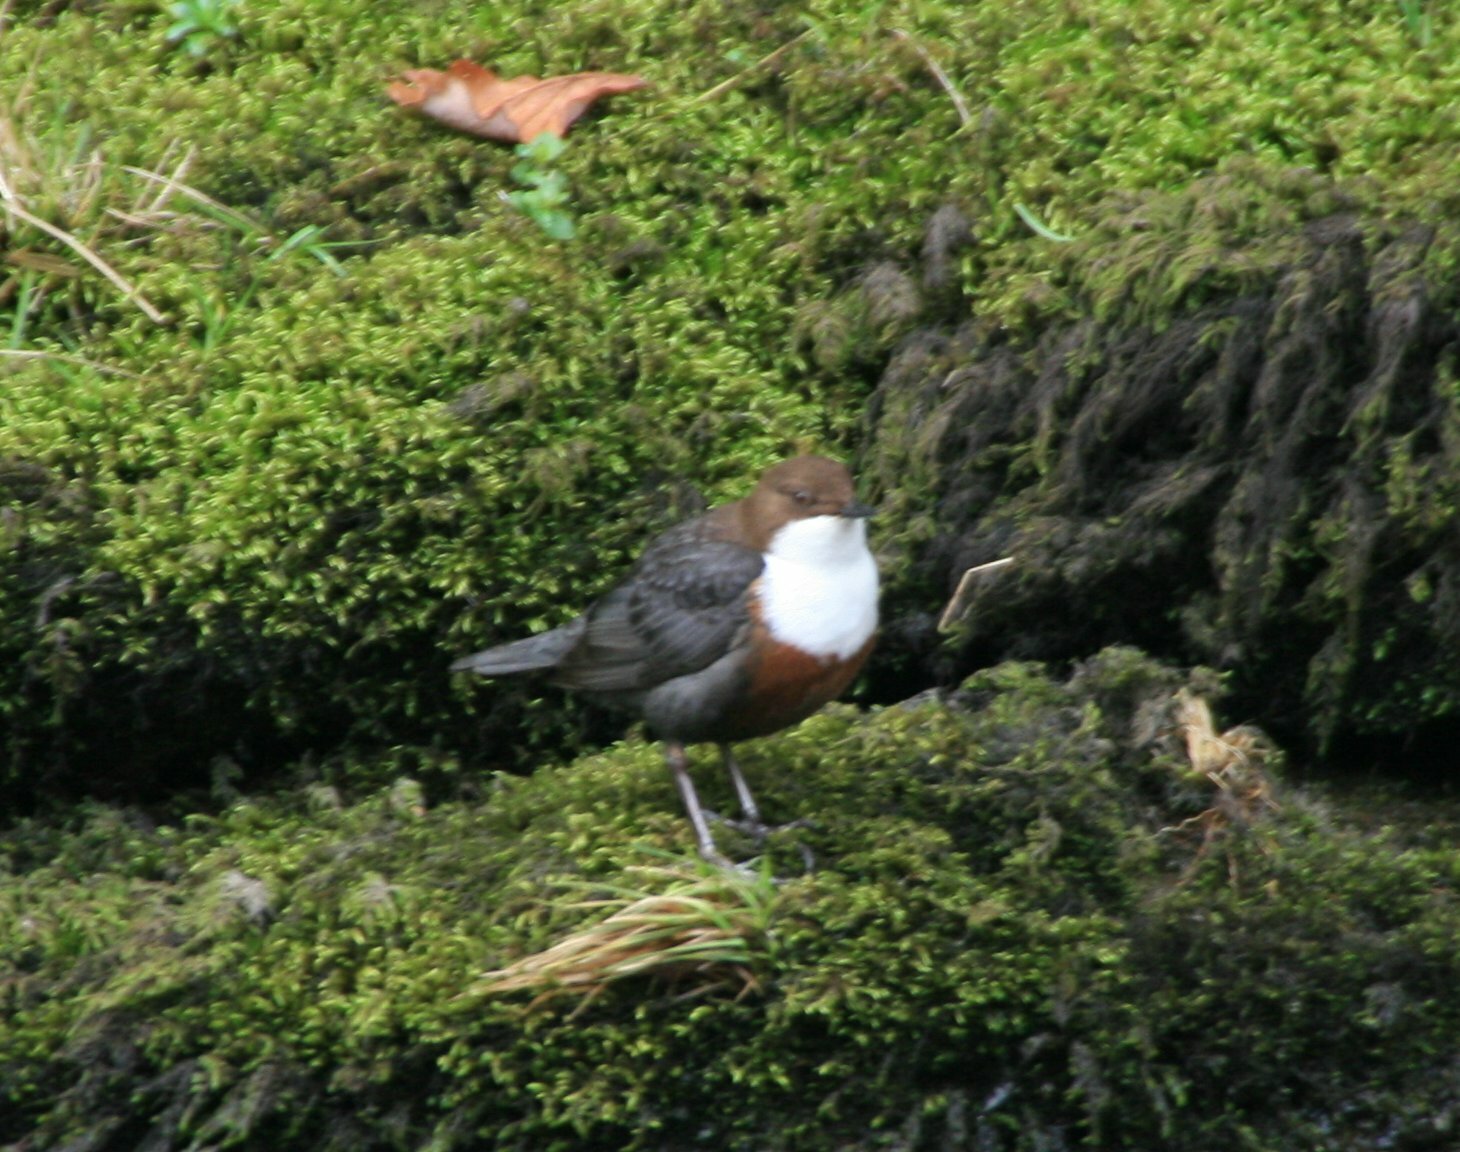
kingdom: Animalia
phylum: Chordata
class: Aves
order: Passeriformes
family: Cinclidae
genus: Cinclus
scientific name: Cinclus cinclus
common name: White-throated dipper
